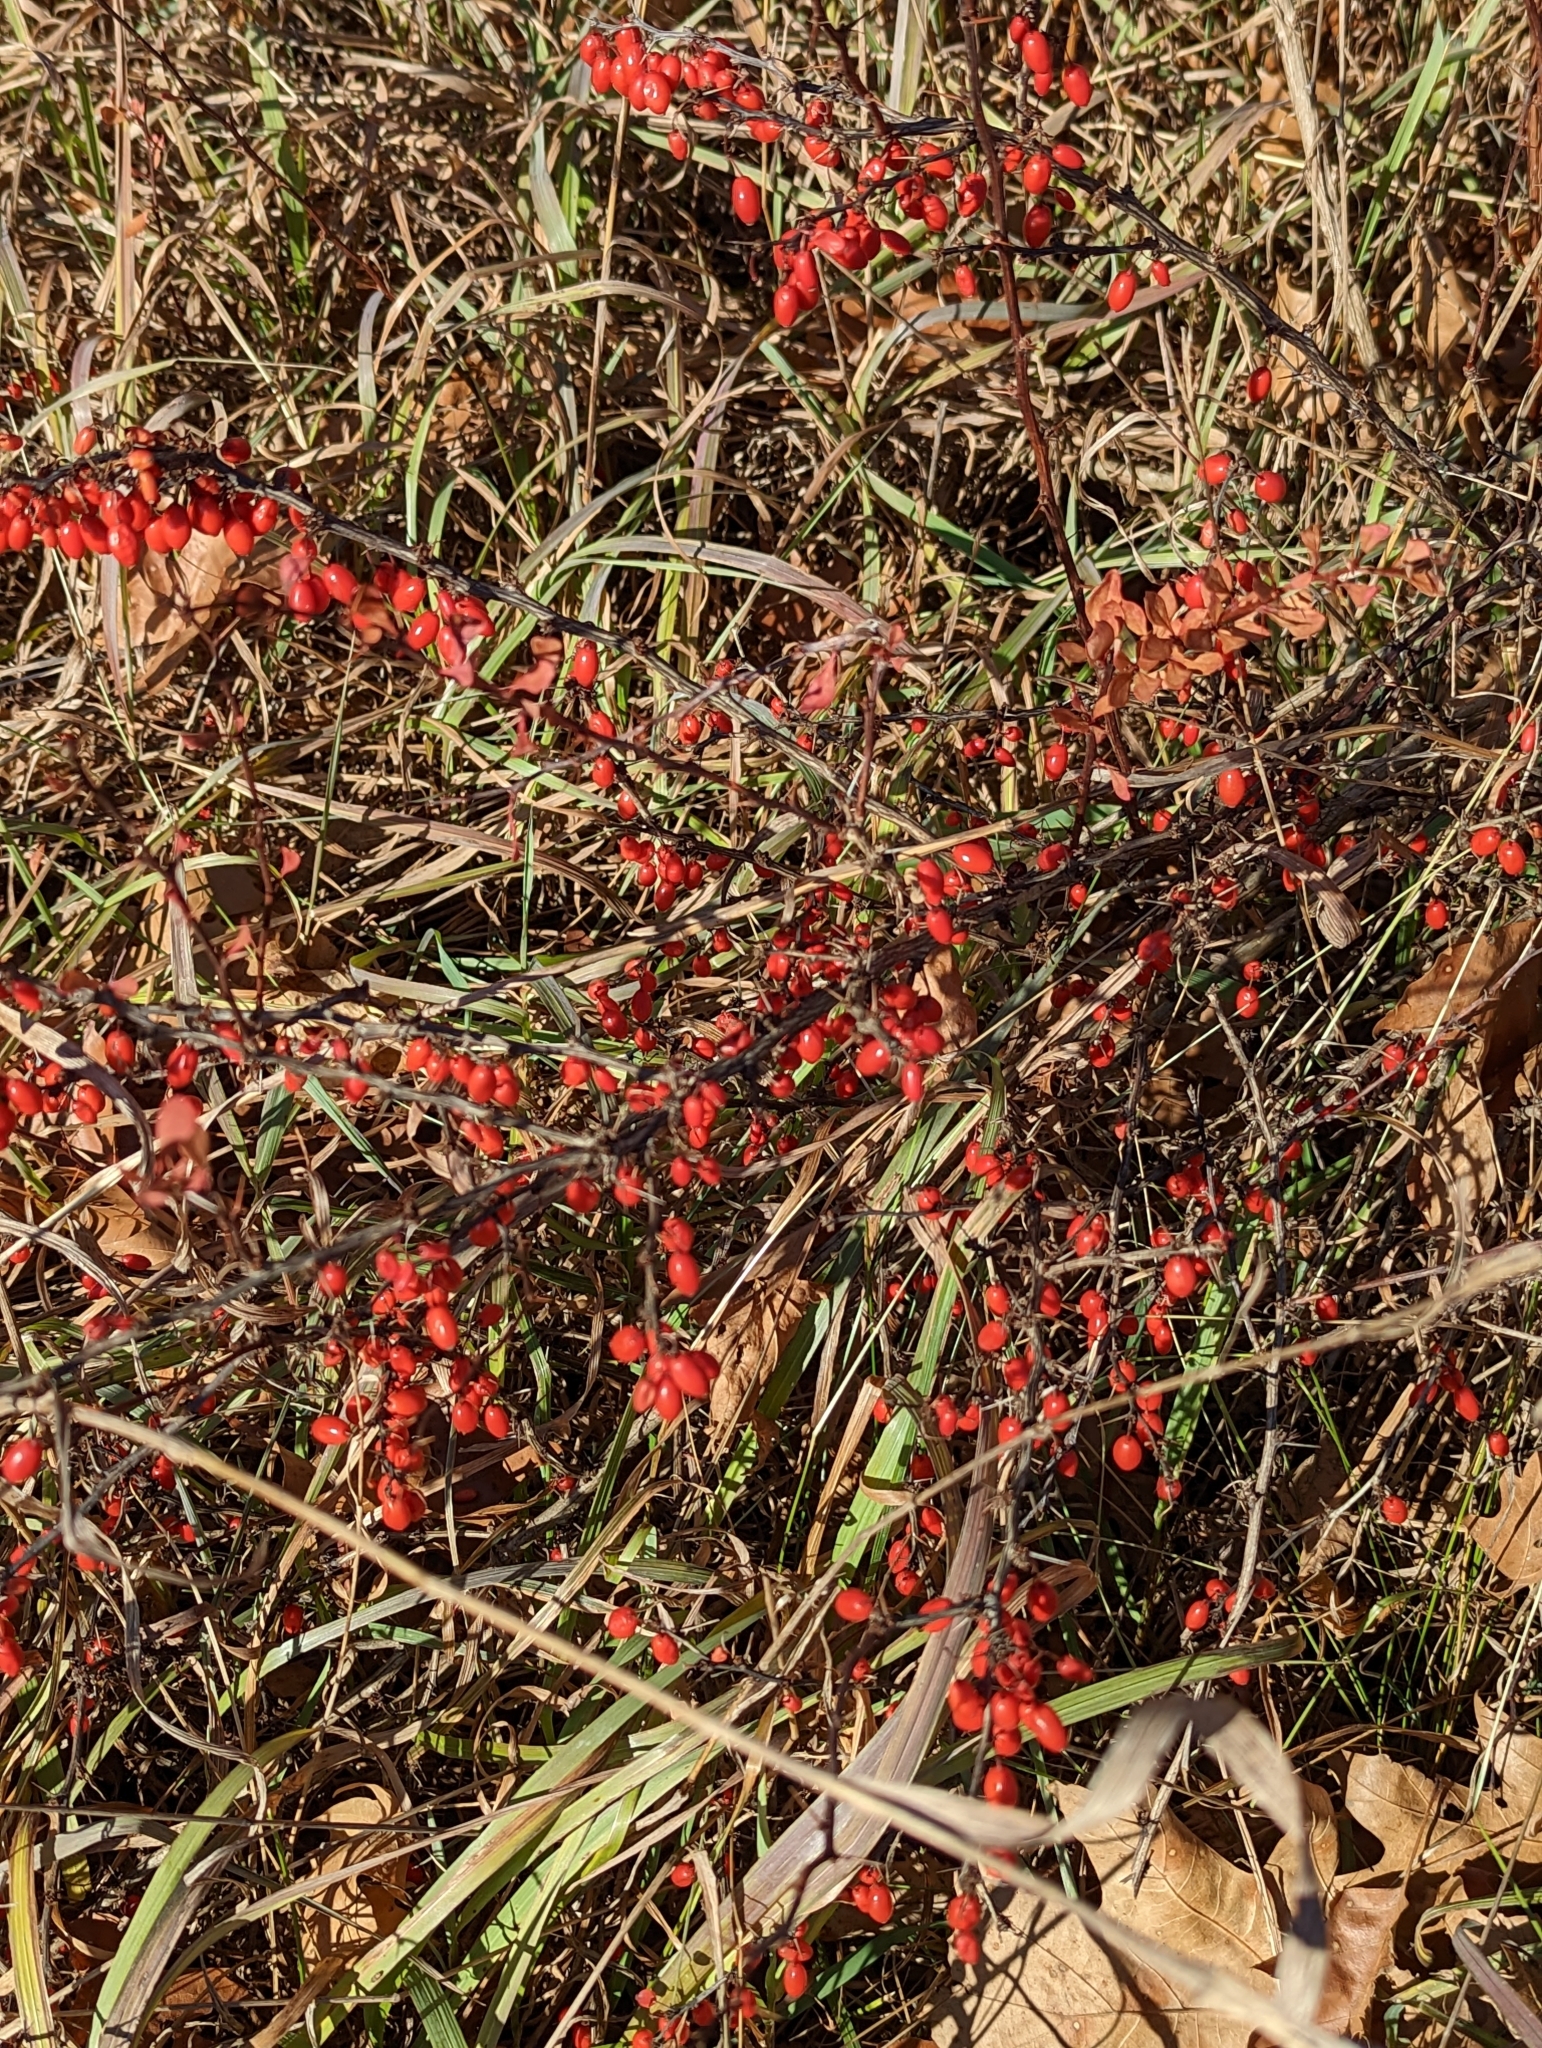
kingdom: Plantae
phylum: Tracheophyta
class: Magnoliopsida
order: Ranunculales
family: Berberidaceae
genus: Berberis
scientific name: Berberis thunbergii
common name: Japanese barberry
